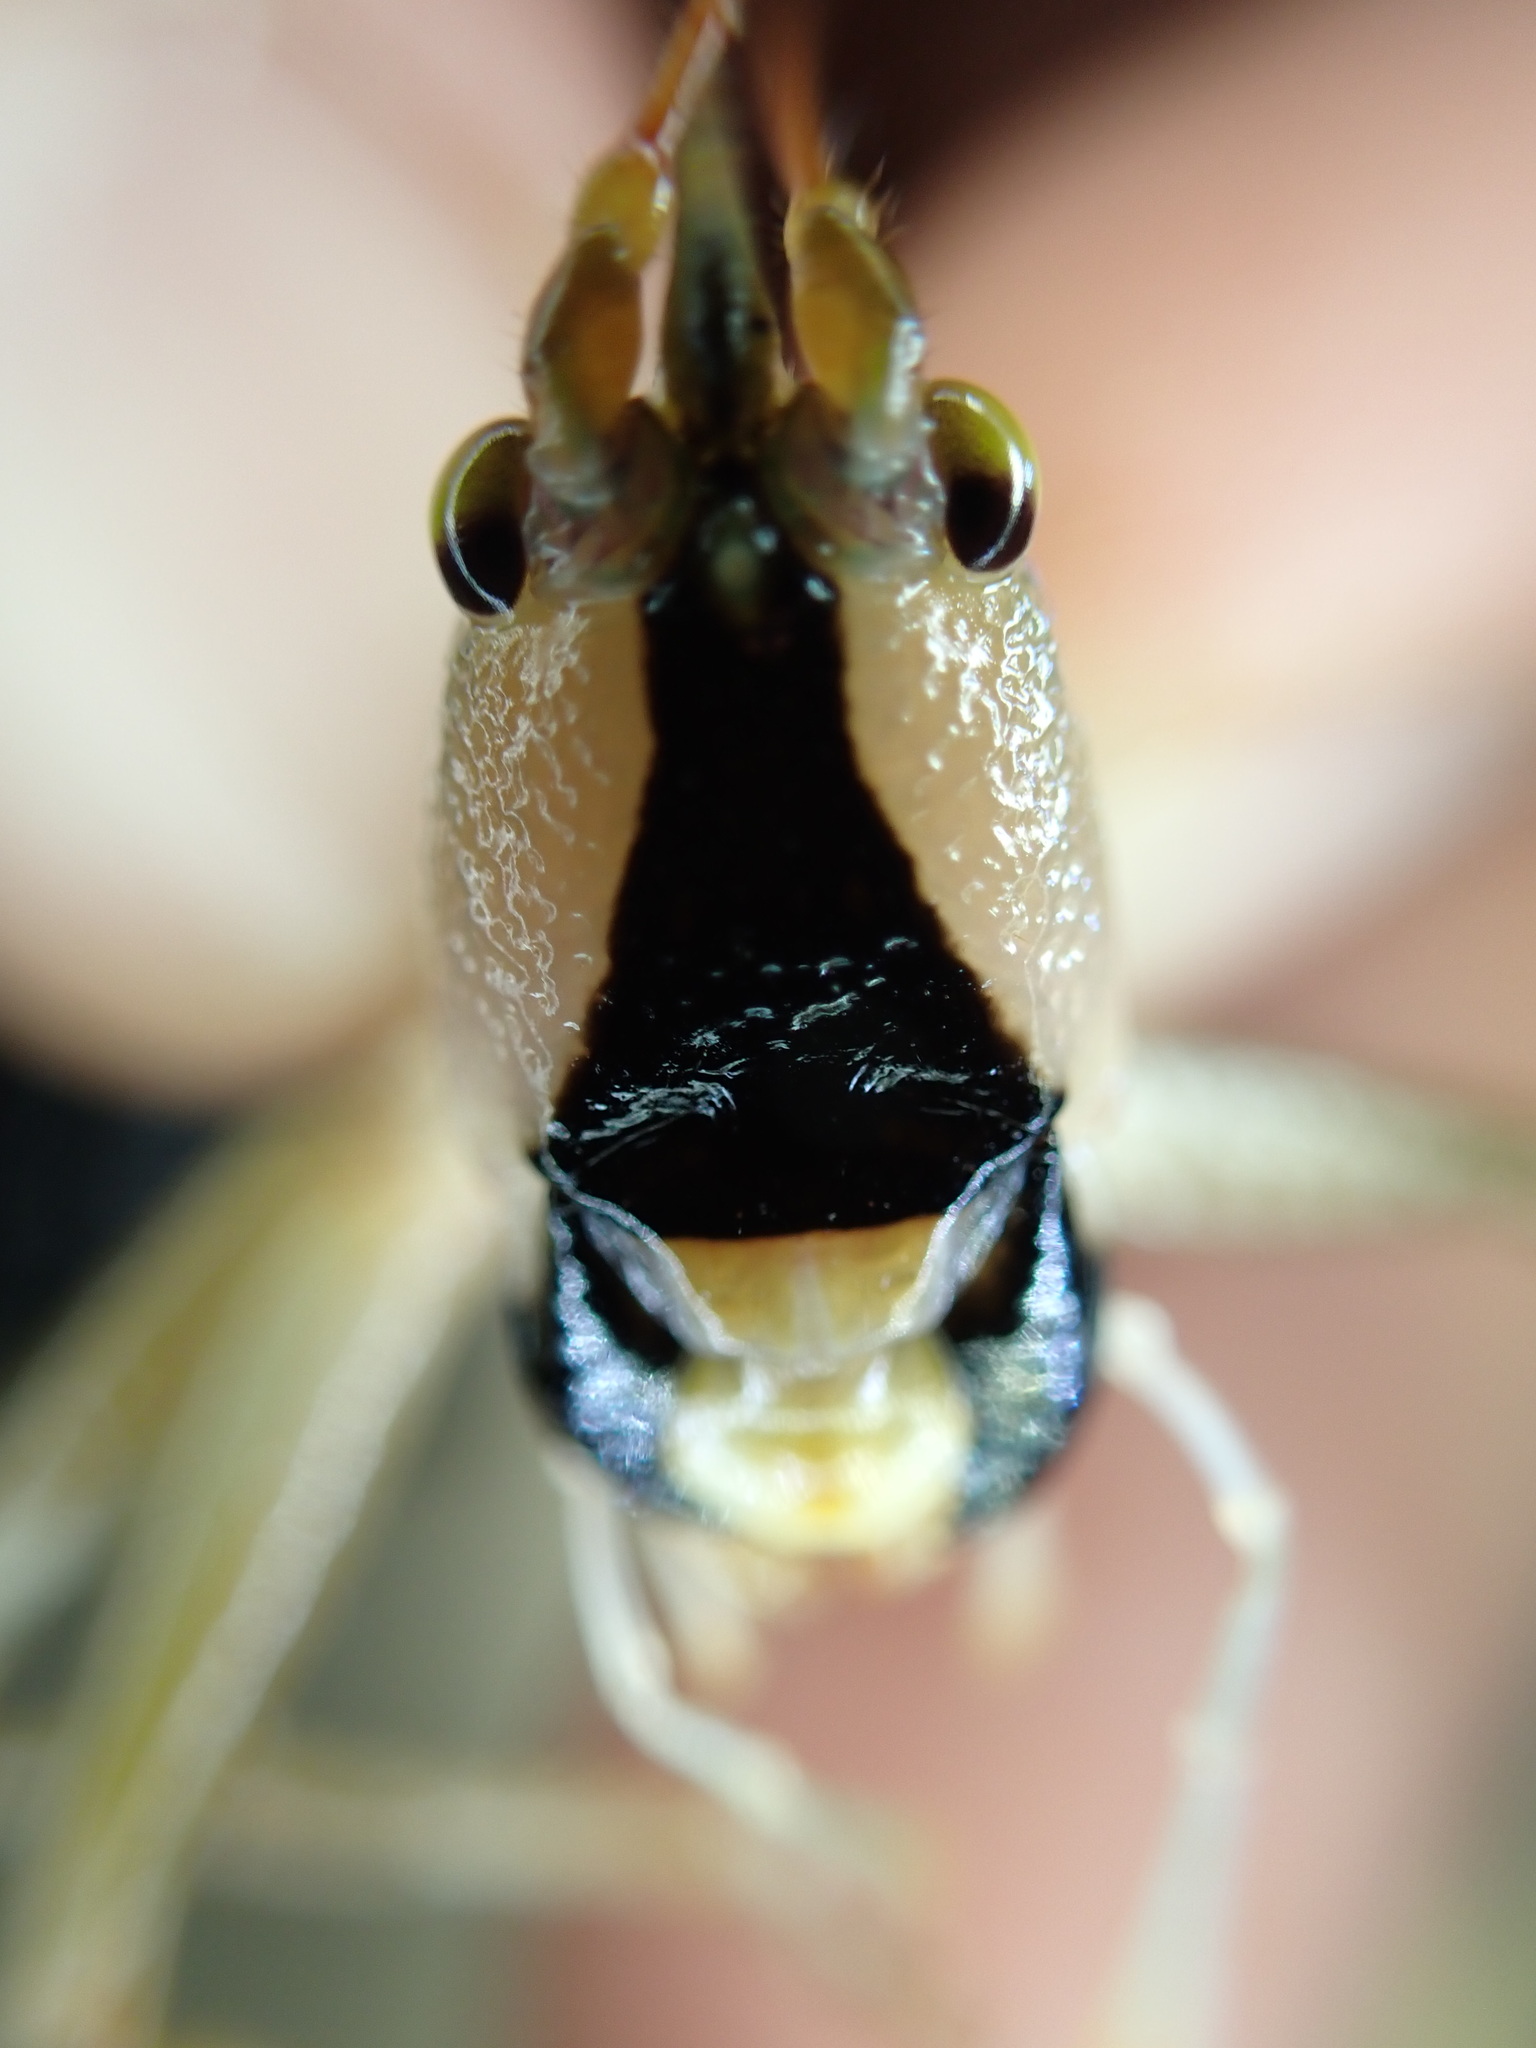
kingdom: Animalia
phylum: Arthropoda
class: Insecta
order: Orthoptera
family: Tettigoniidae
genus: Barbaragraecia
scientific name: Barbaragraecia richardsoni
